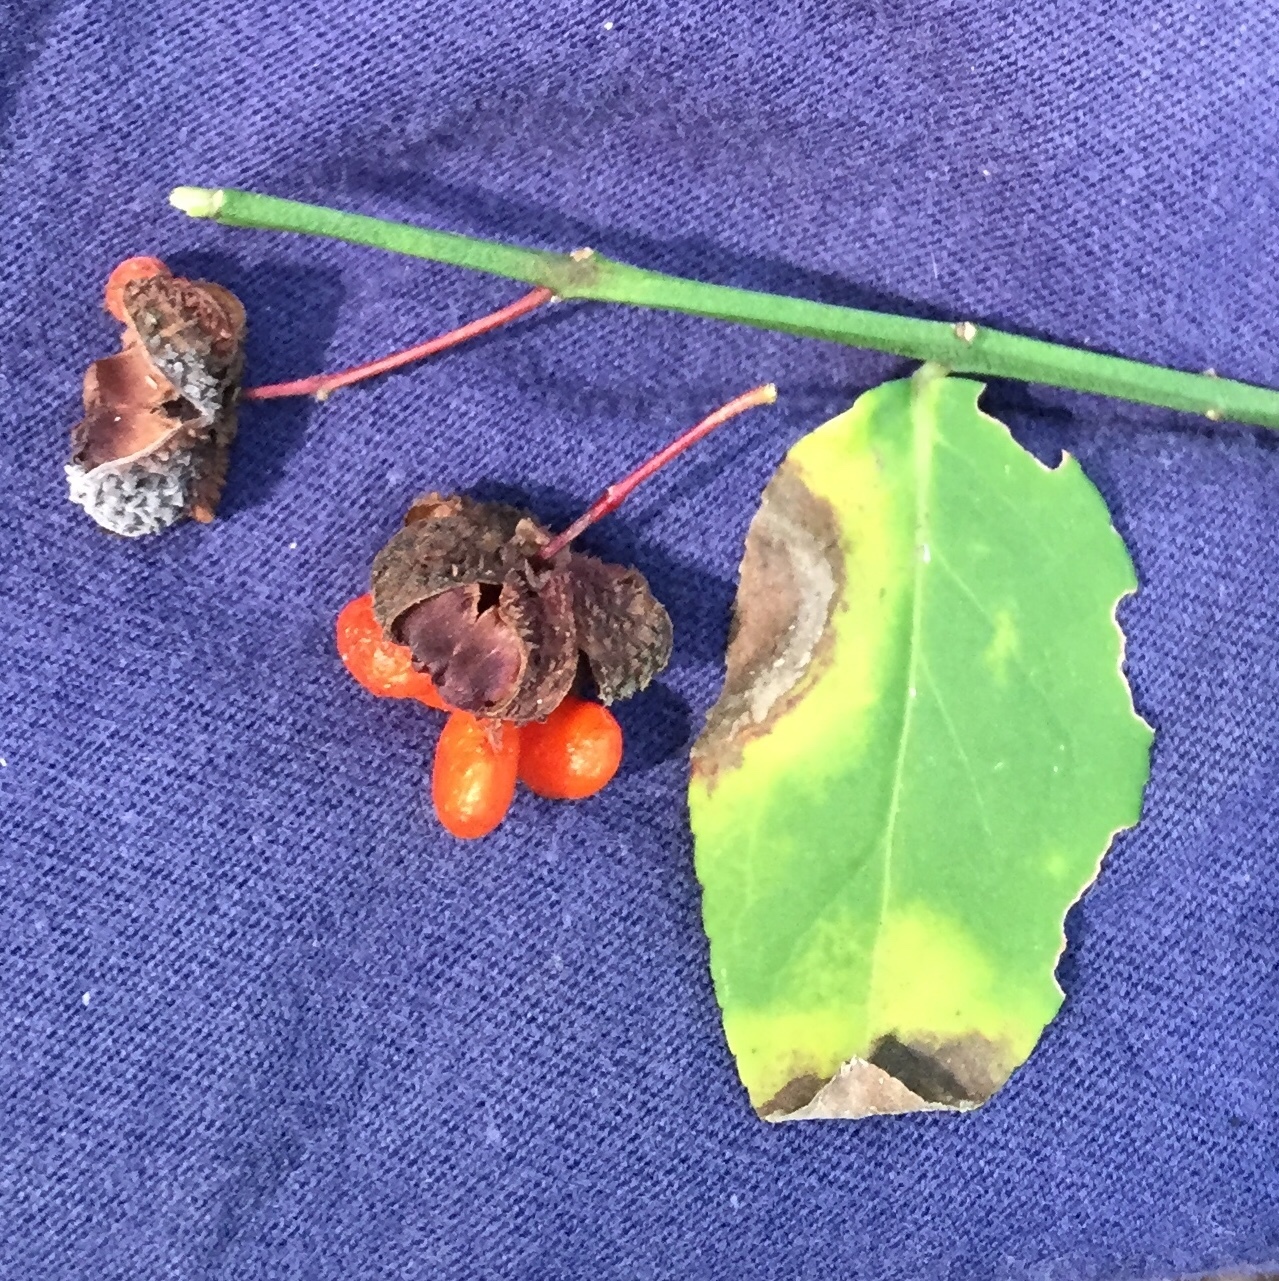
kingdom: Plantae
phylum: Tracheophyta
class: Magnoliopsida
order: Celastrales
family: Celastraceae
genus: Euonymus
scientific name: Euonymus americanus
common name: Bursting-heart
